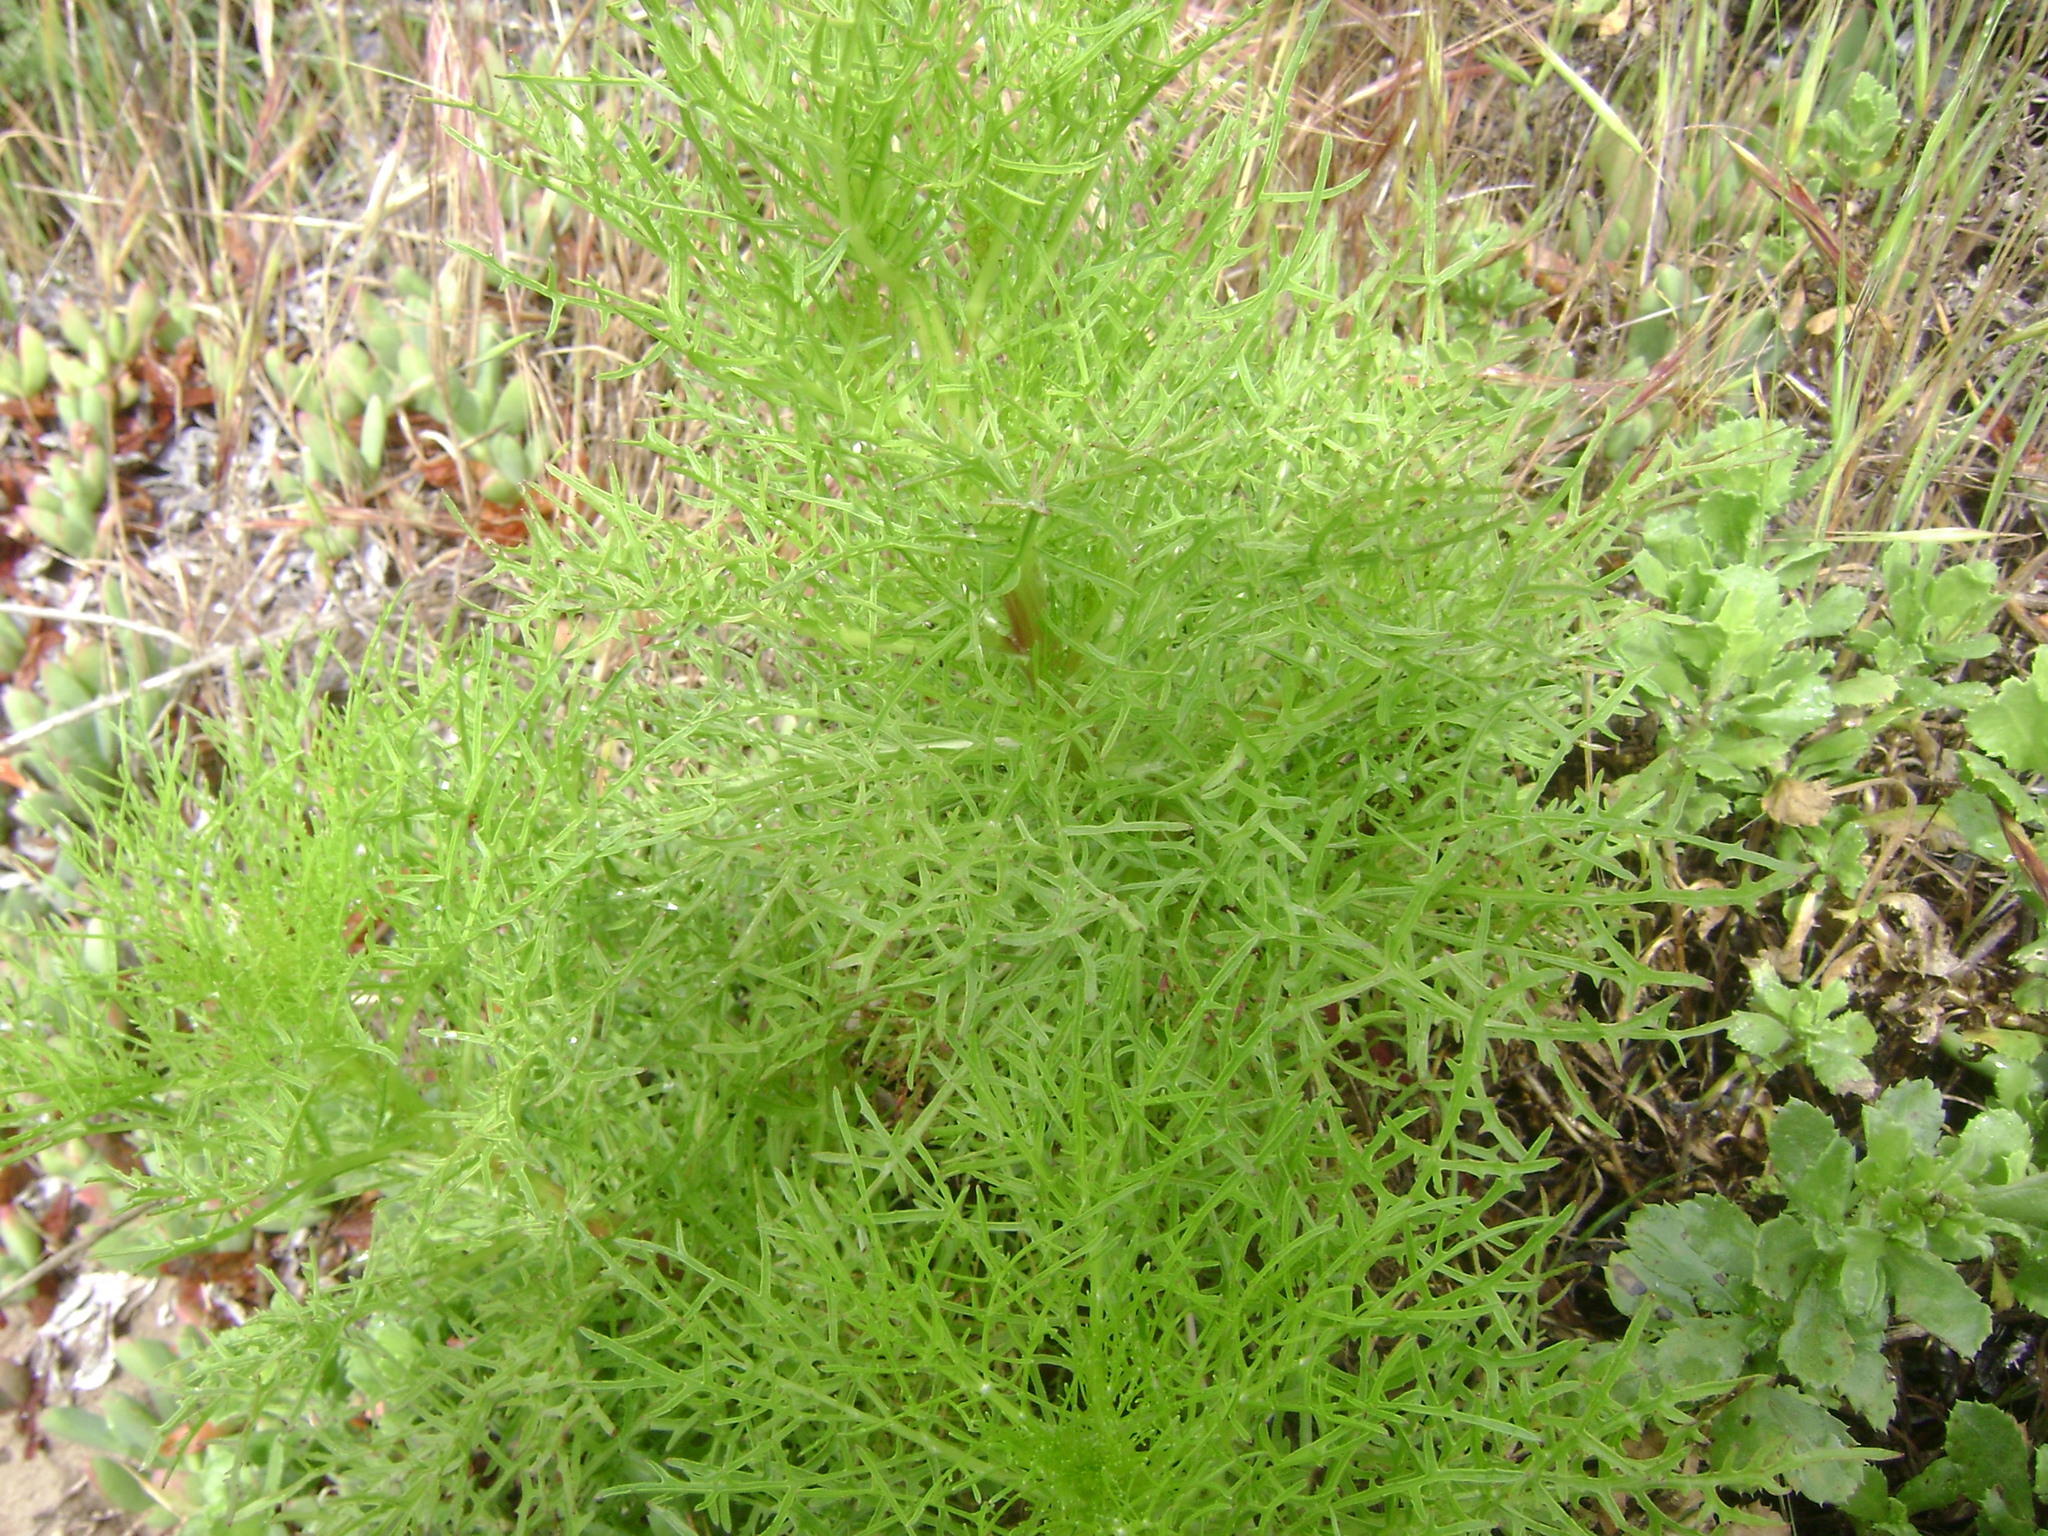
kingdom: Plantae
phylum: Tracheophyta
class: Magnoliopsida
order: Asterales
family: Asteraceae
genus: Malacothrix
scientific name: Malacothrix saxatilis
